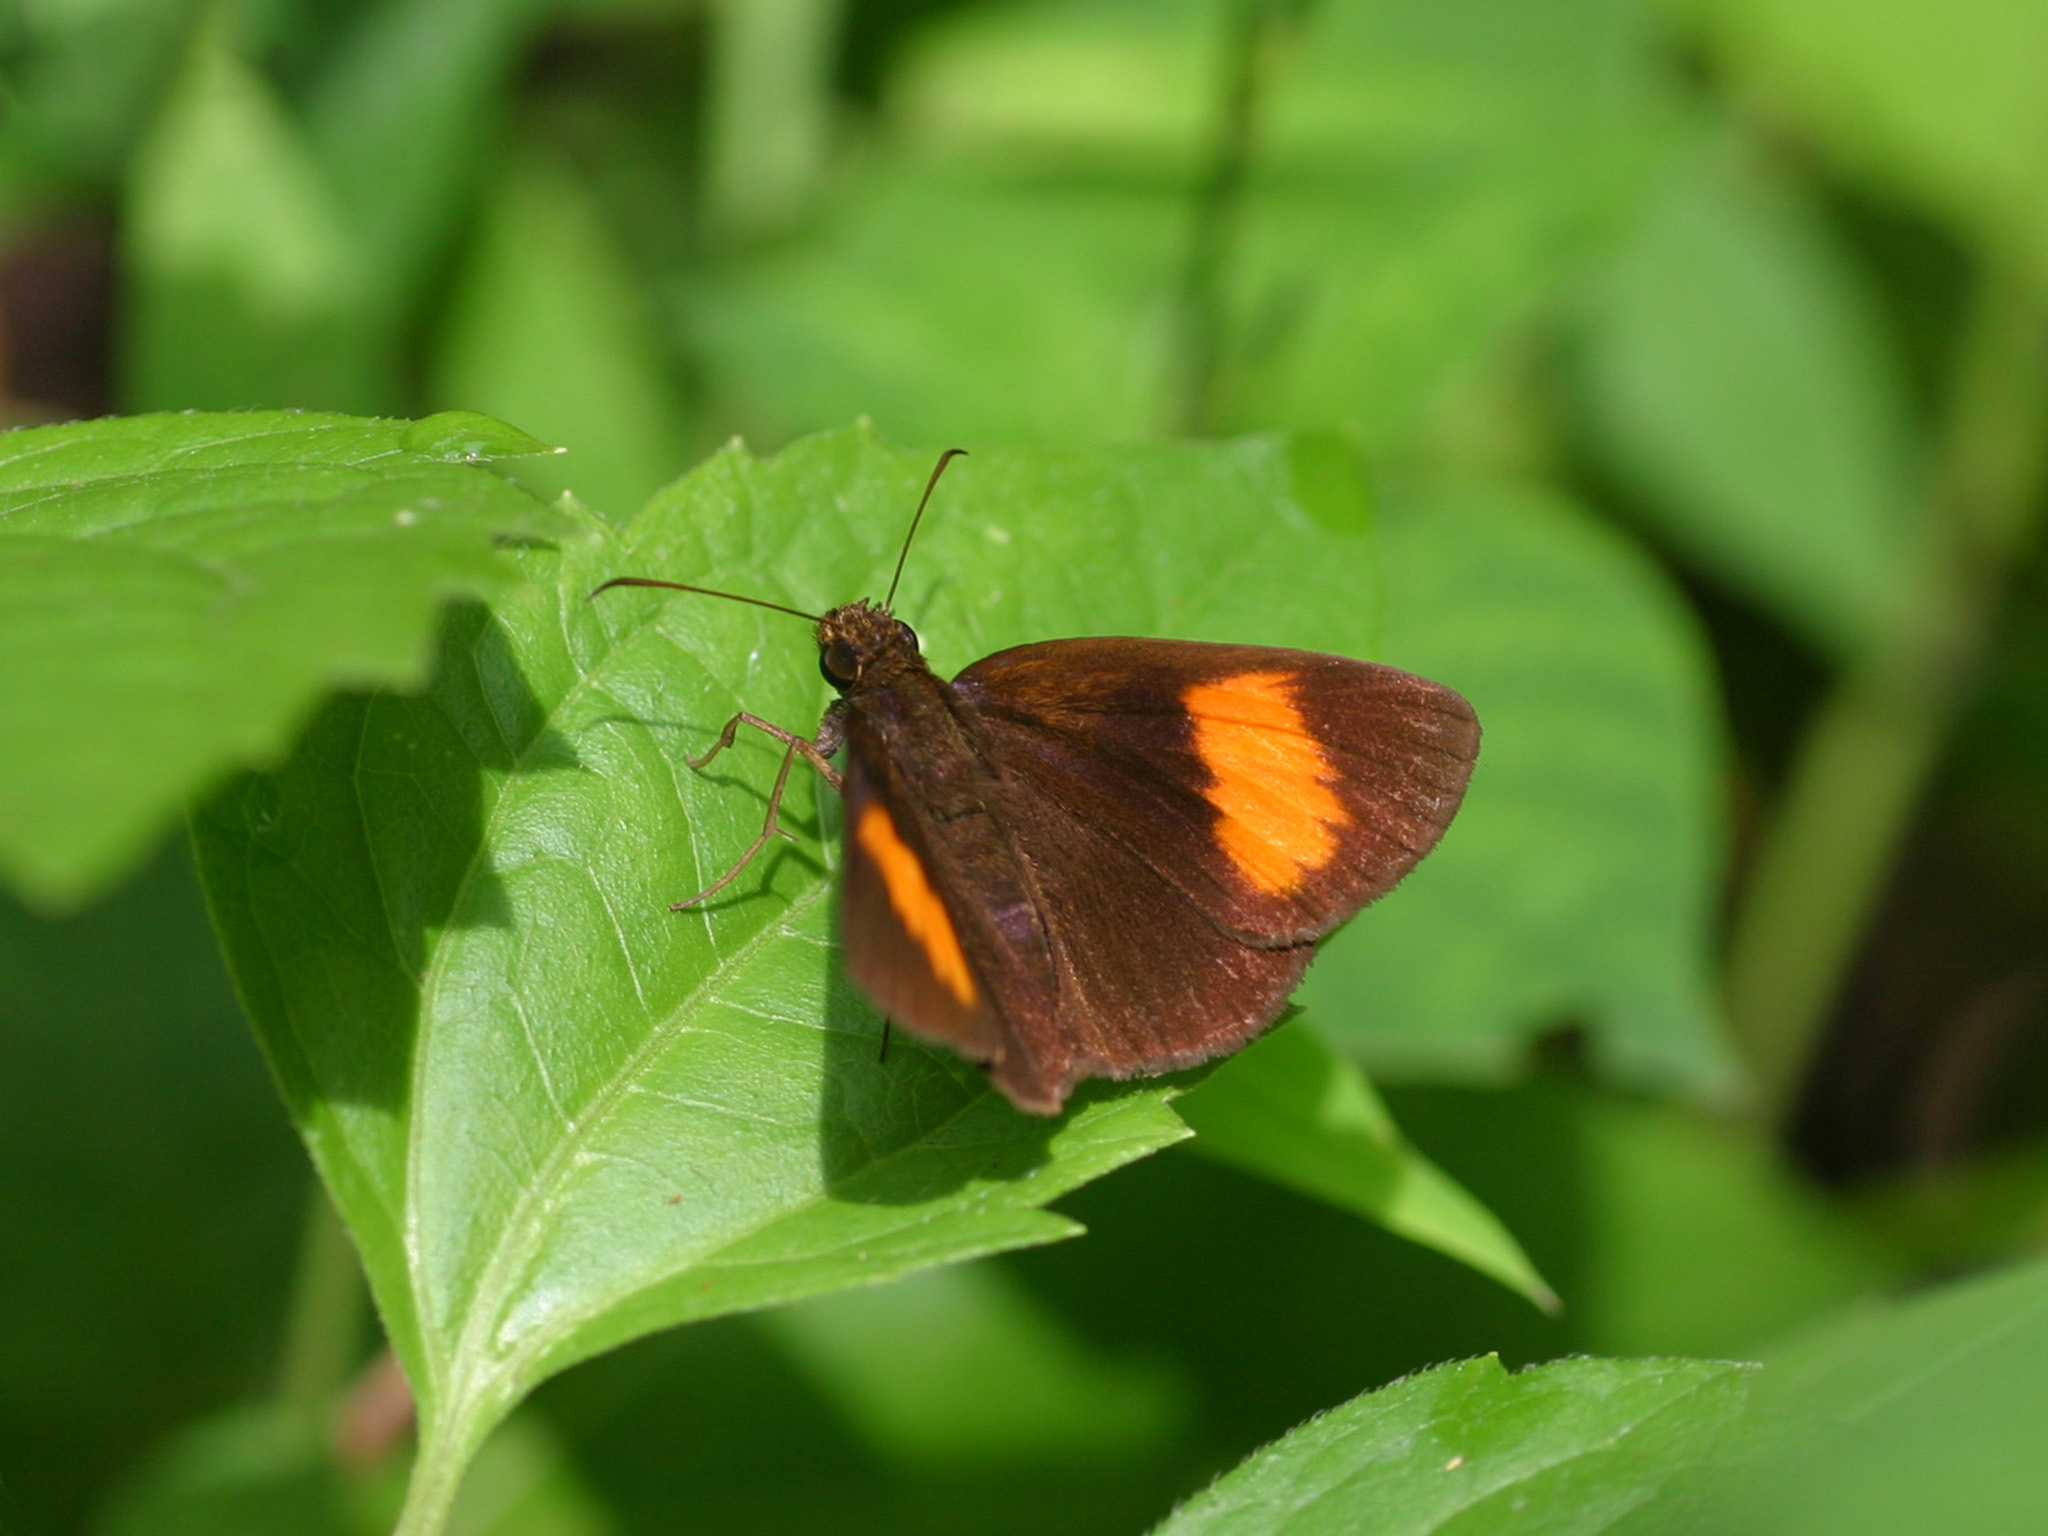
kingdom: Animalia
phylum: Arthropoda
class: Insecta
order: Lepidoptera
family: Hesperiidae
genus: Koruthaialos
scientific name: Koruthaialos sindu
